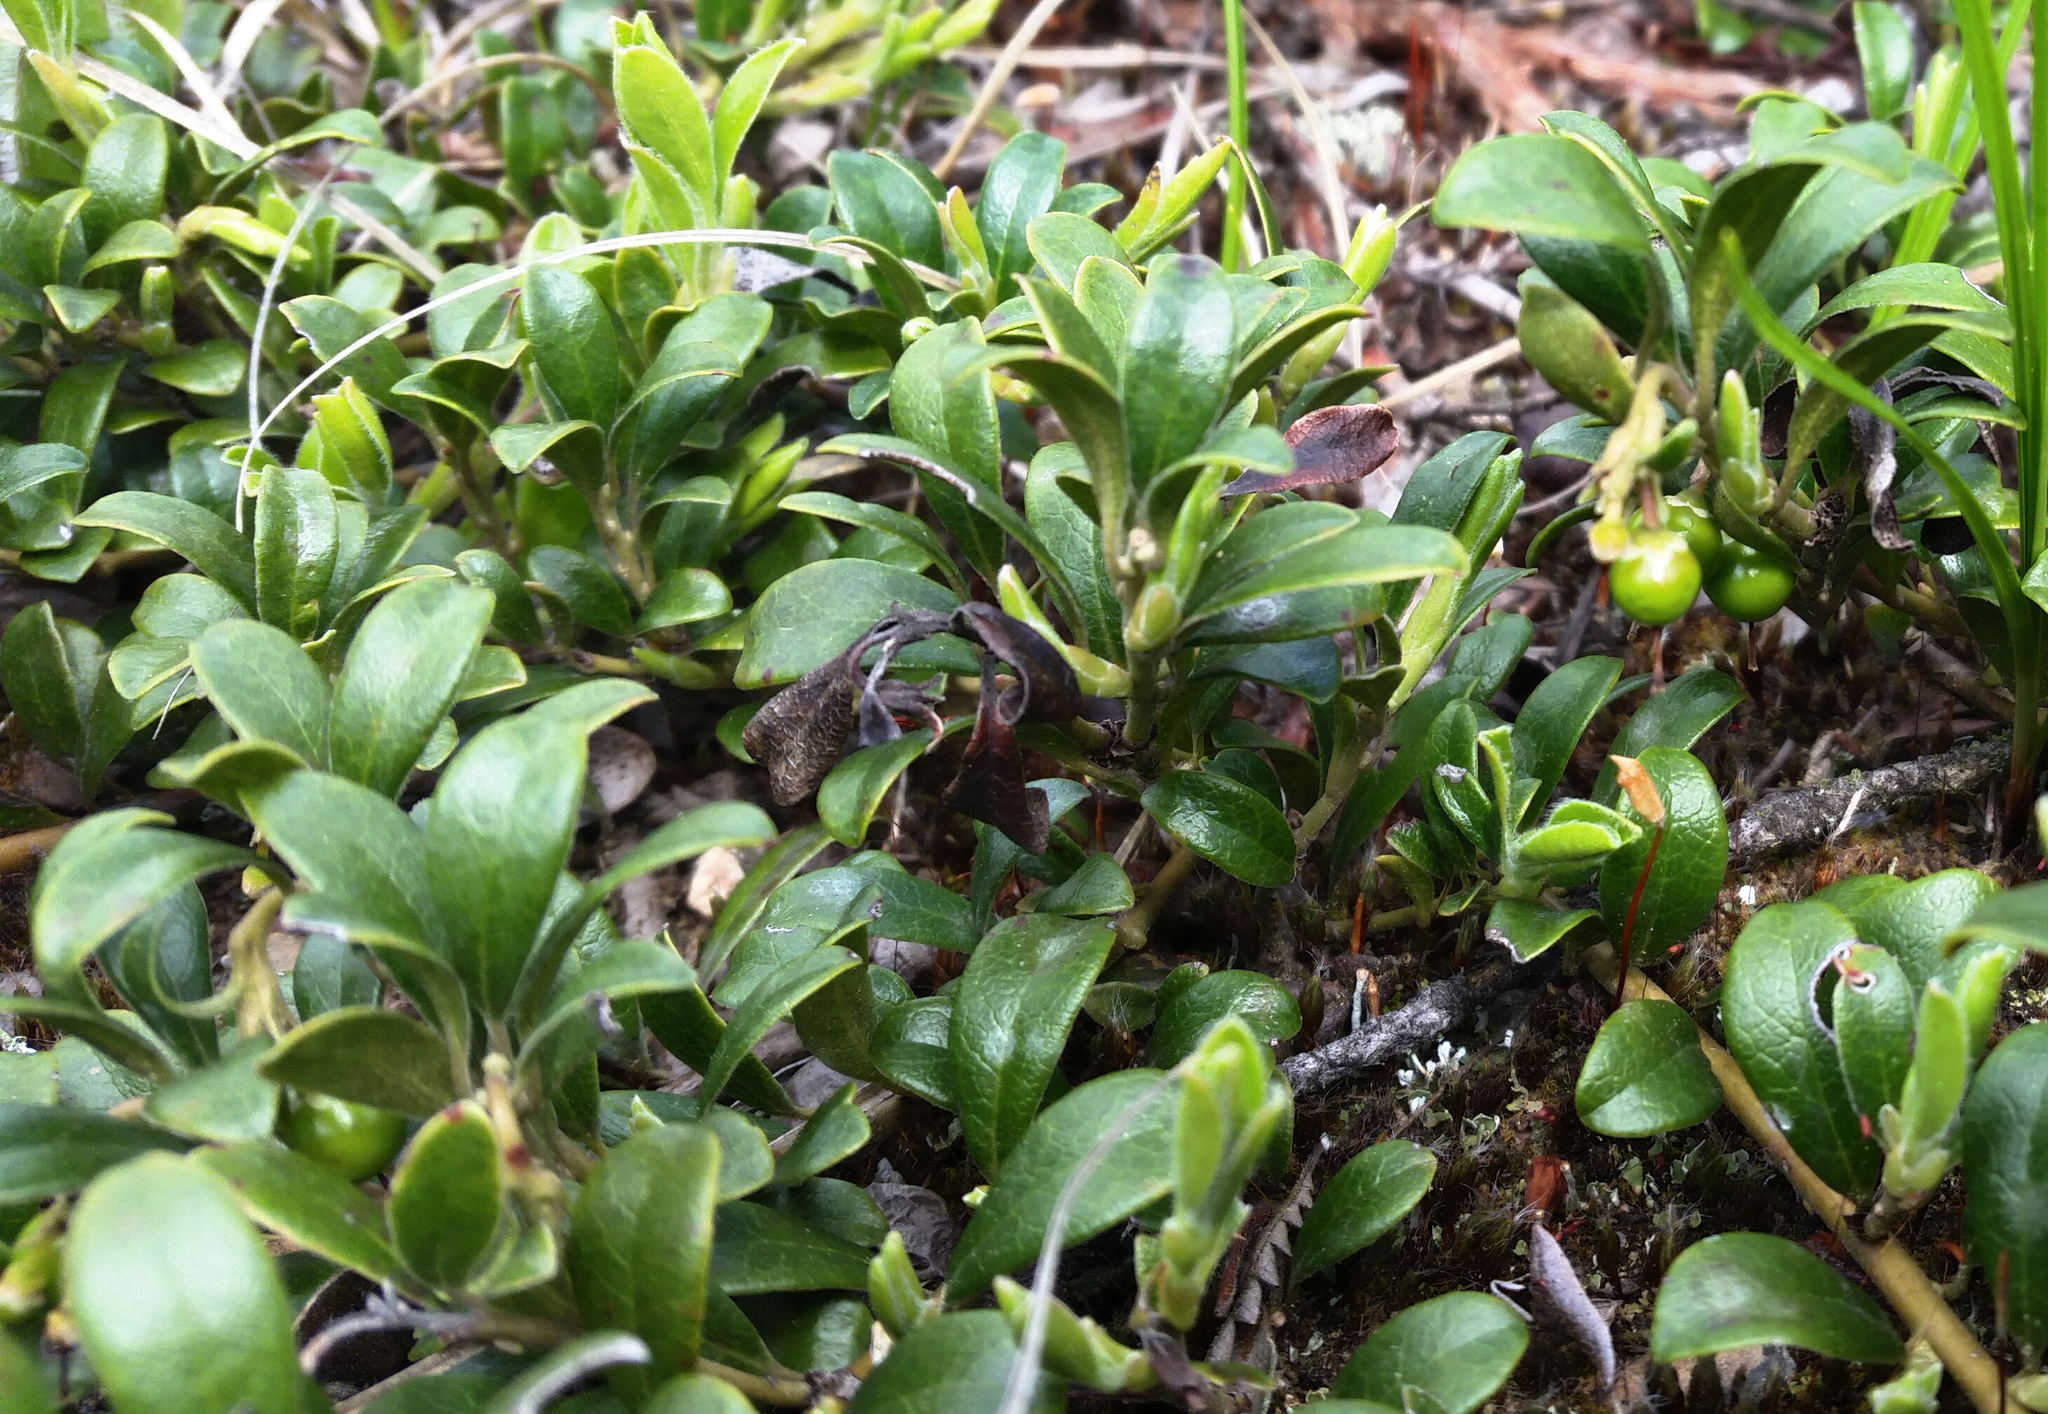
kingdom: Plantae
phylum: Tracheophyta
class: Magnoliopsida
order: Ericales
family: Ericaceae
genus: Arctostaphylos
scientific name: Arctostaphylos uva-ursi
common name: Bearberry
